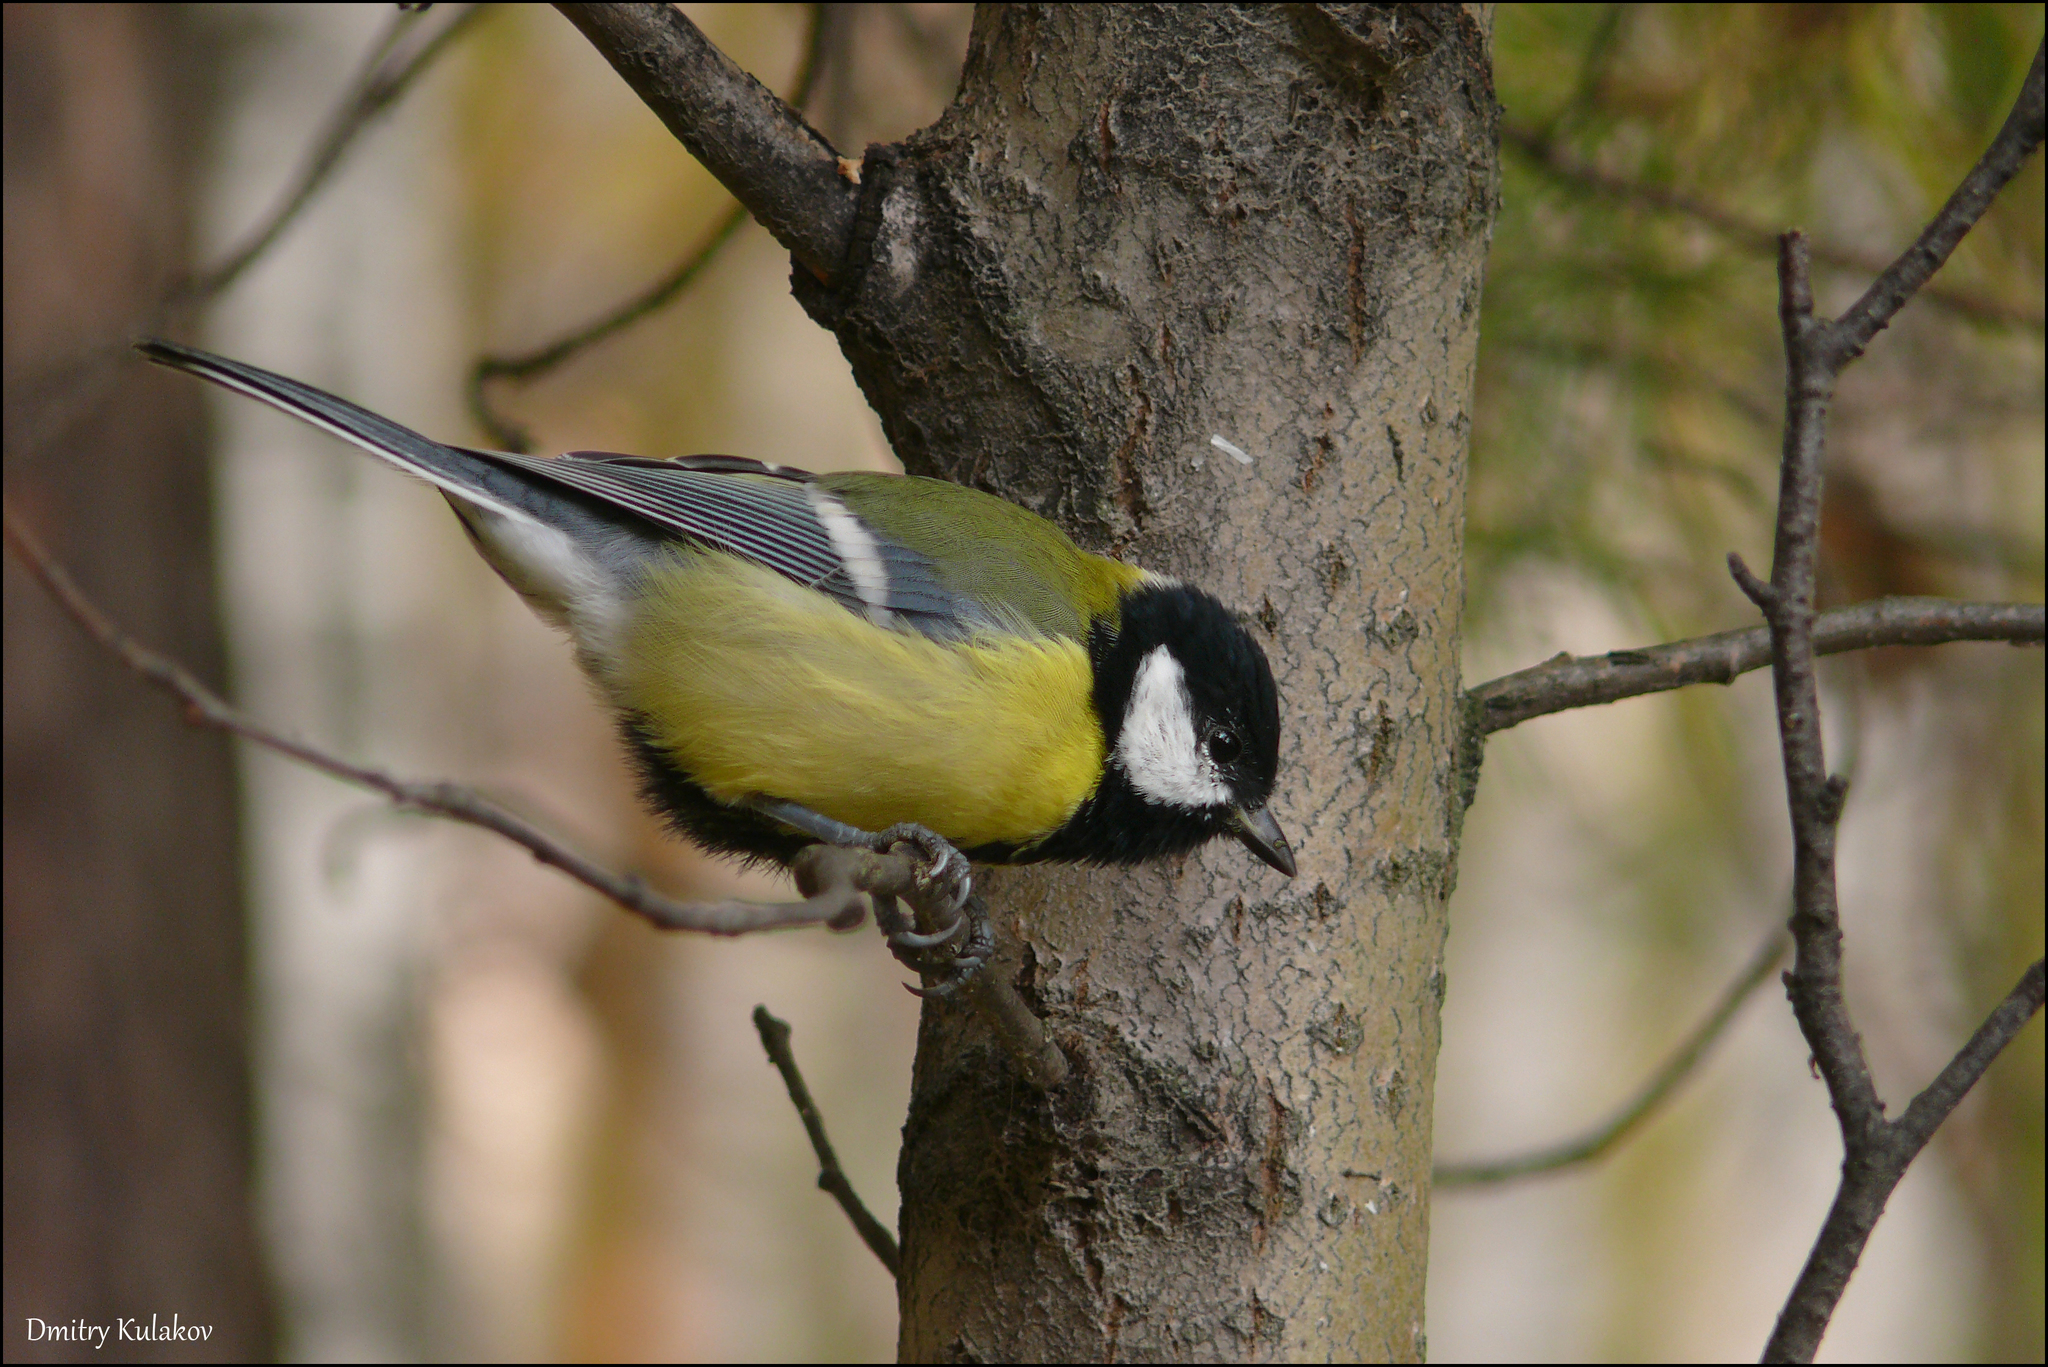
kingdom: Animalia
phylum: Chordata
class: Aves
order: Passeriformes
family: Paridae
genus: Parus
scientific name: Parus major
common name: Great tit
